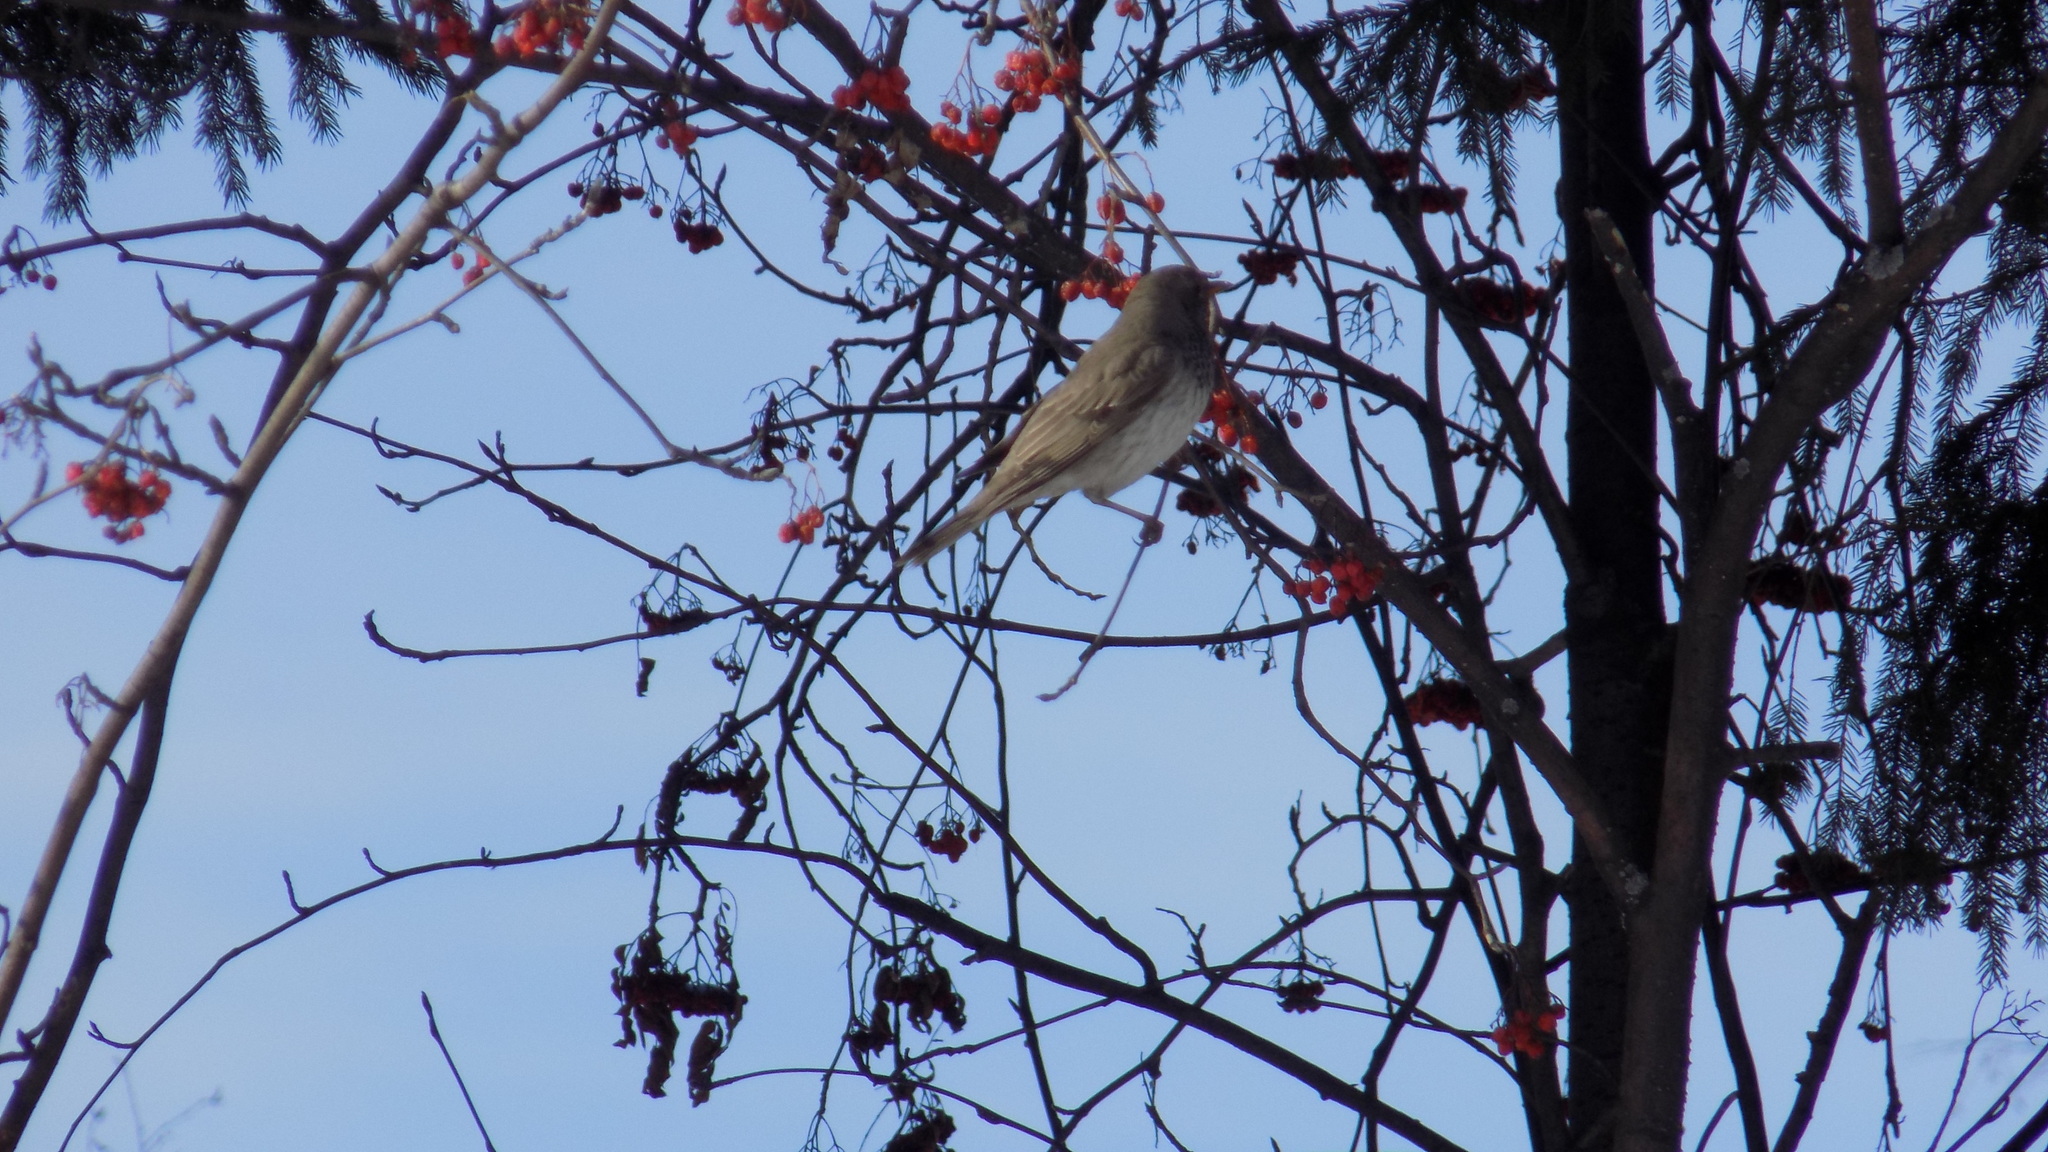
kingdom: Animalia
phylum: Chordata
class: Aves
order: Passeriformes
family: Turdidae
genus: Turdus
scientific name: Turdus atrogularis
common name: Black-throated thrush
